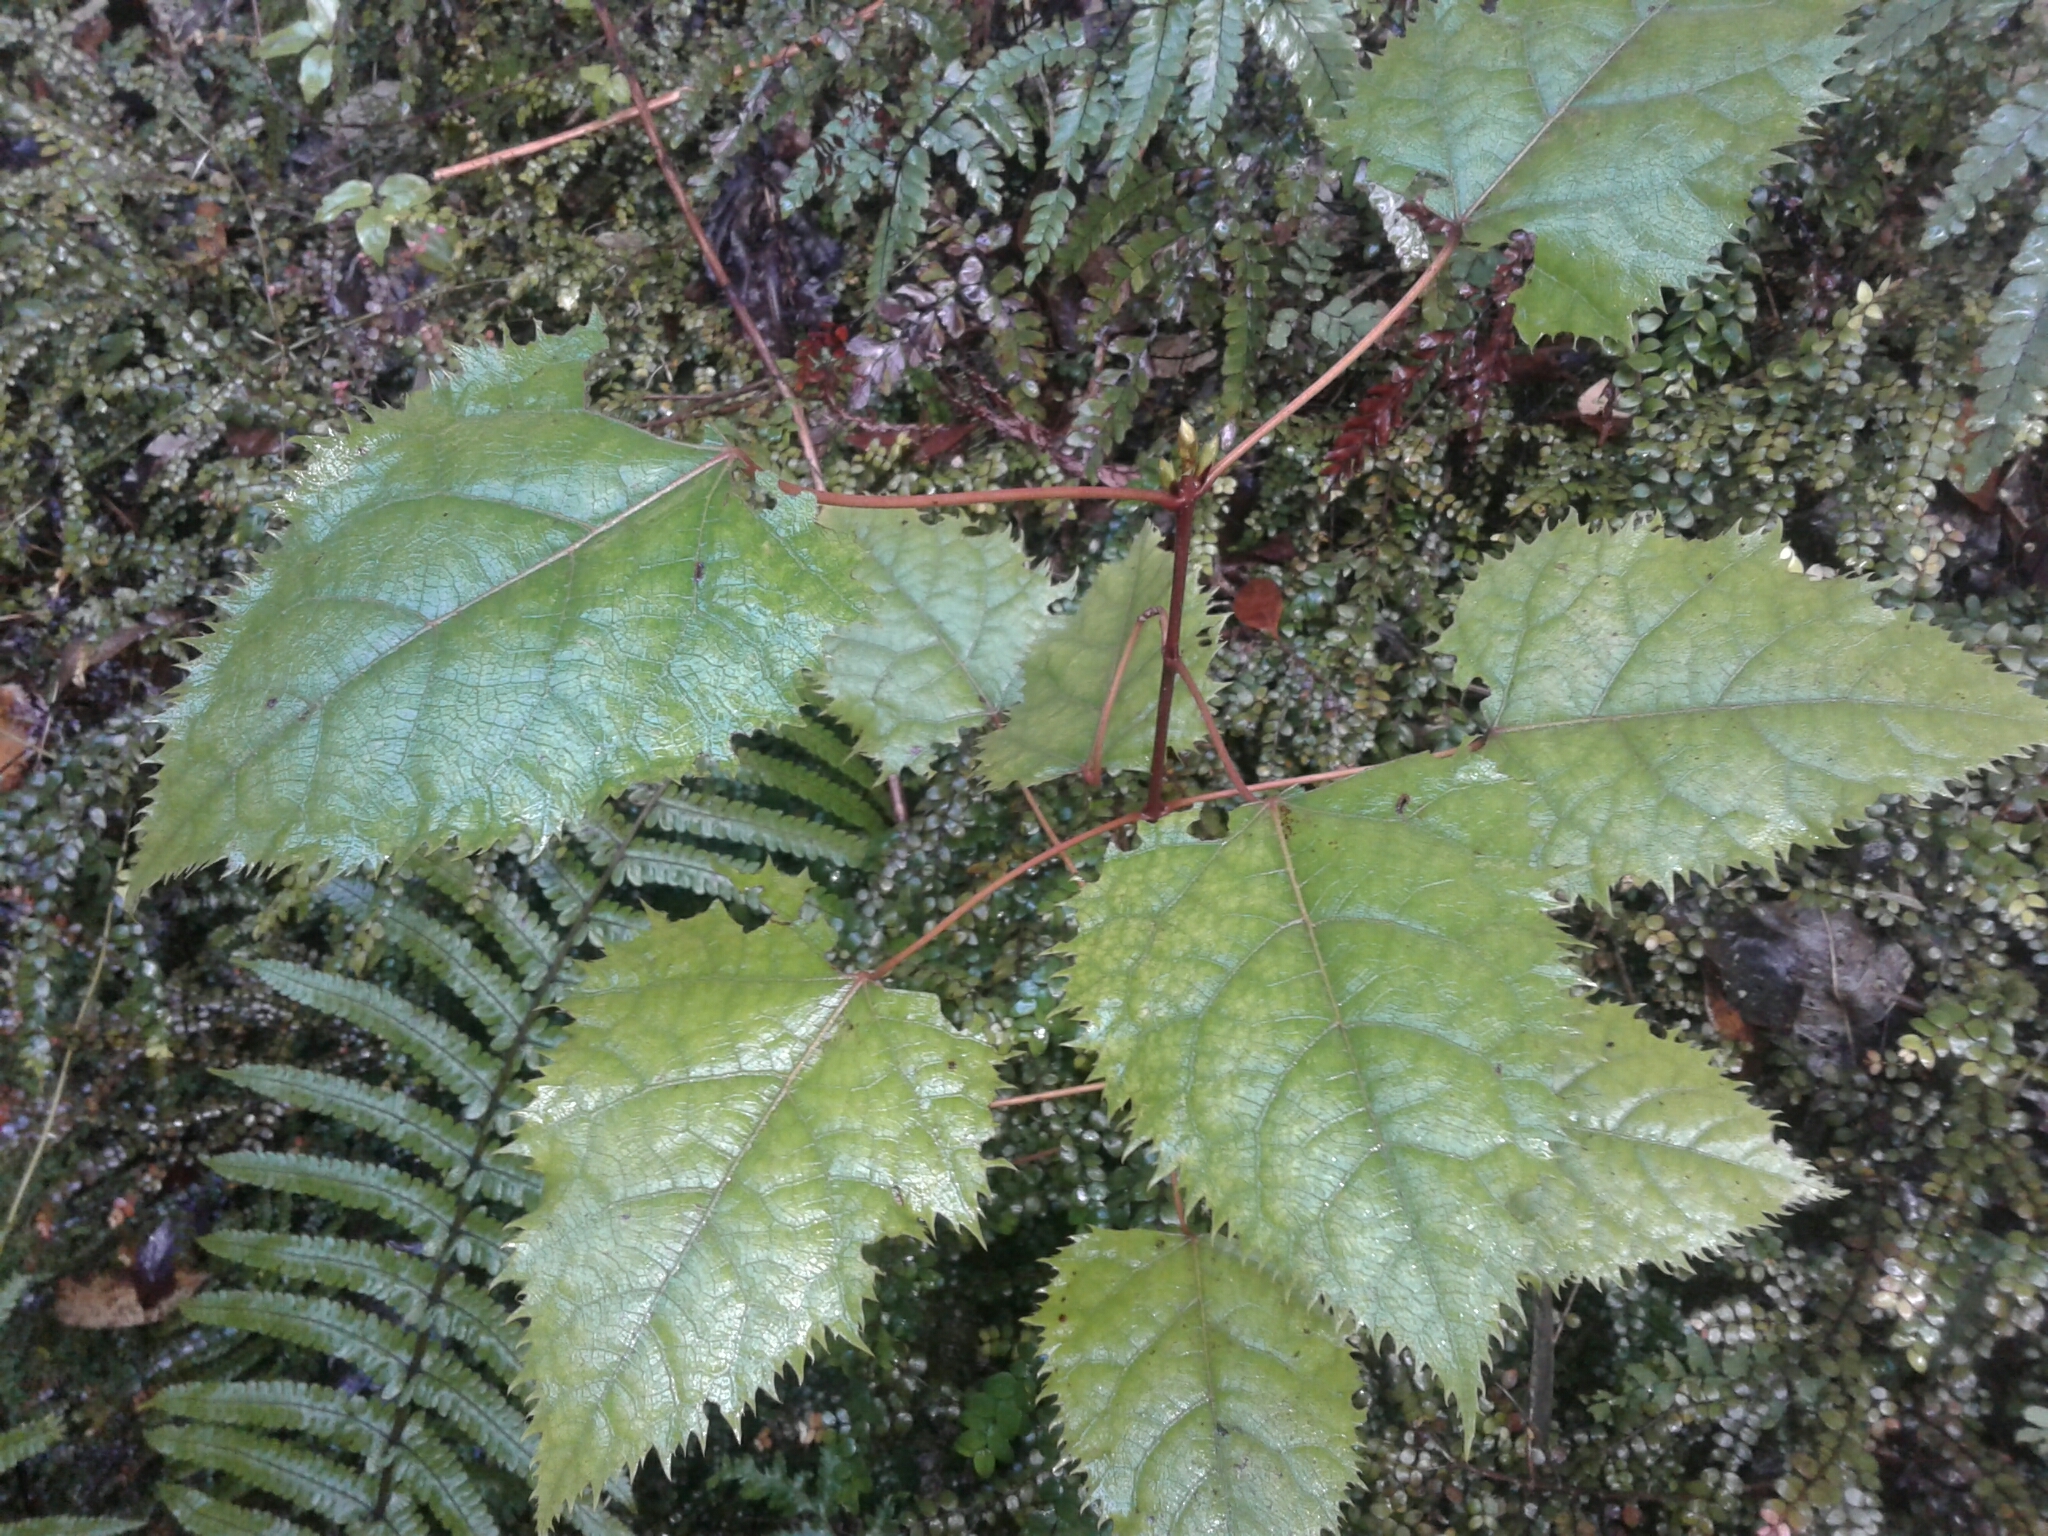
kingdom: Plantae
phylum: Tracheophyta
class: Magnoliopsida
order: Oxalidales
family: Elaeocarpaceae
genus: Aristotelia
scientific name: Aristotelia serrata
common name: New zealand wineberry
